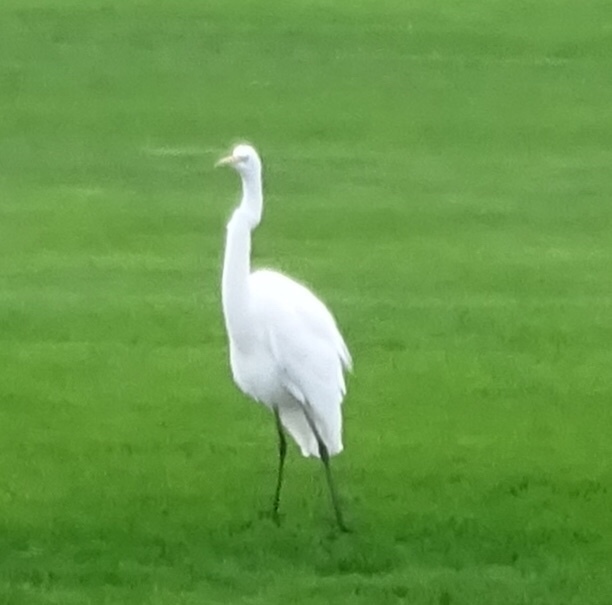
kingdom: Animalia
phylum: Chordata
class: Aves
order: Pelecaniformes
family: Ardeidae
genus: Ardea
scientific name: Ardea alba
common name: Great egret
